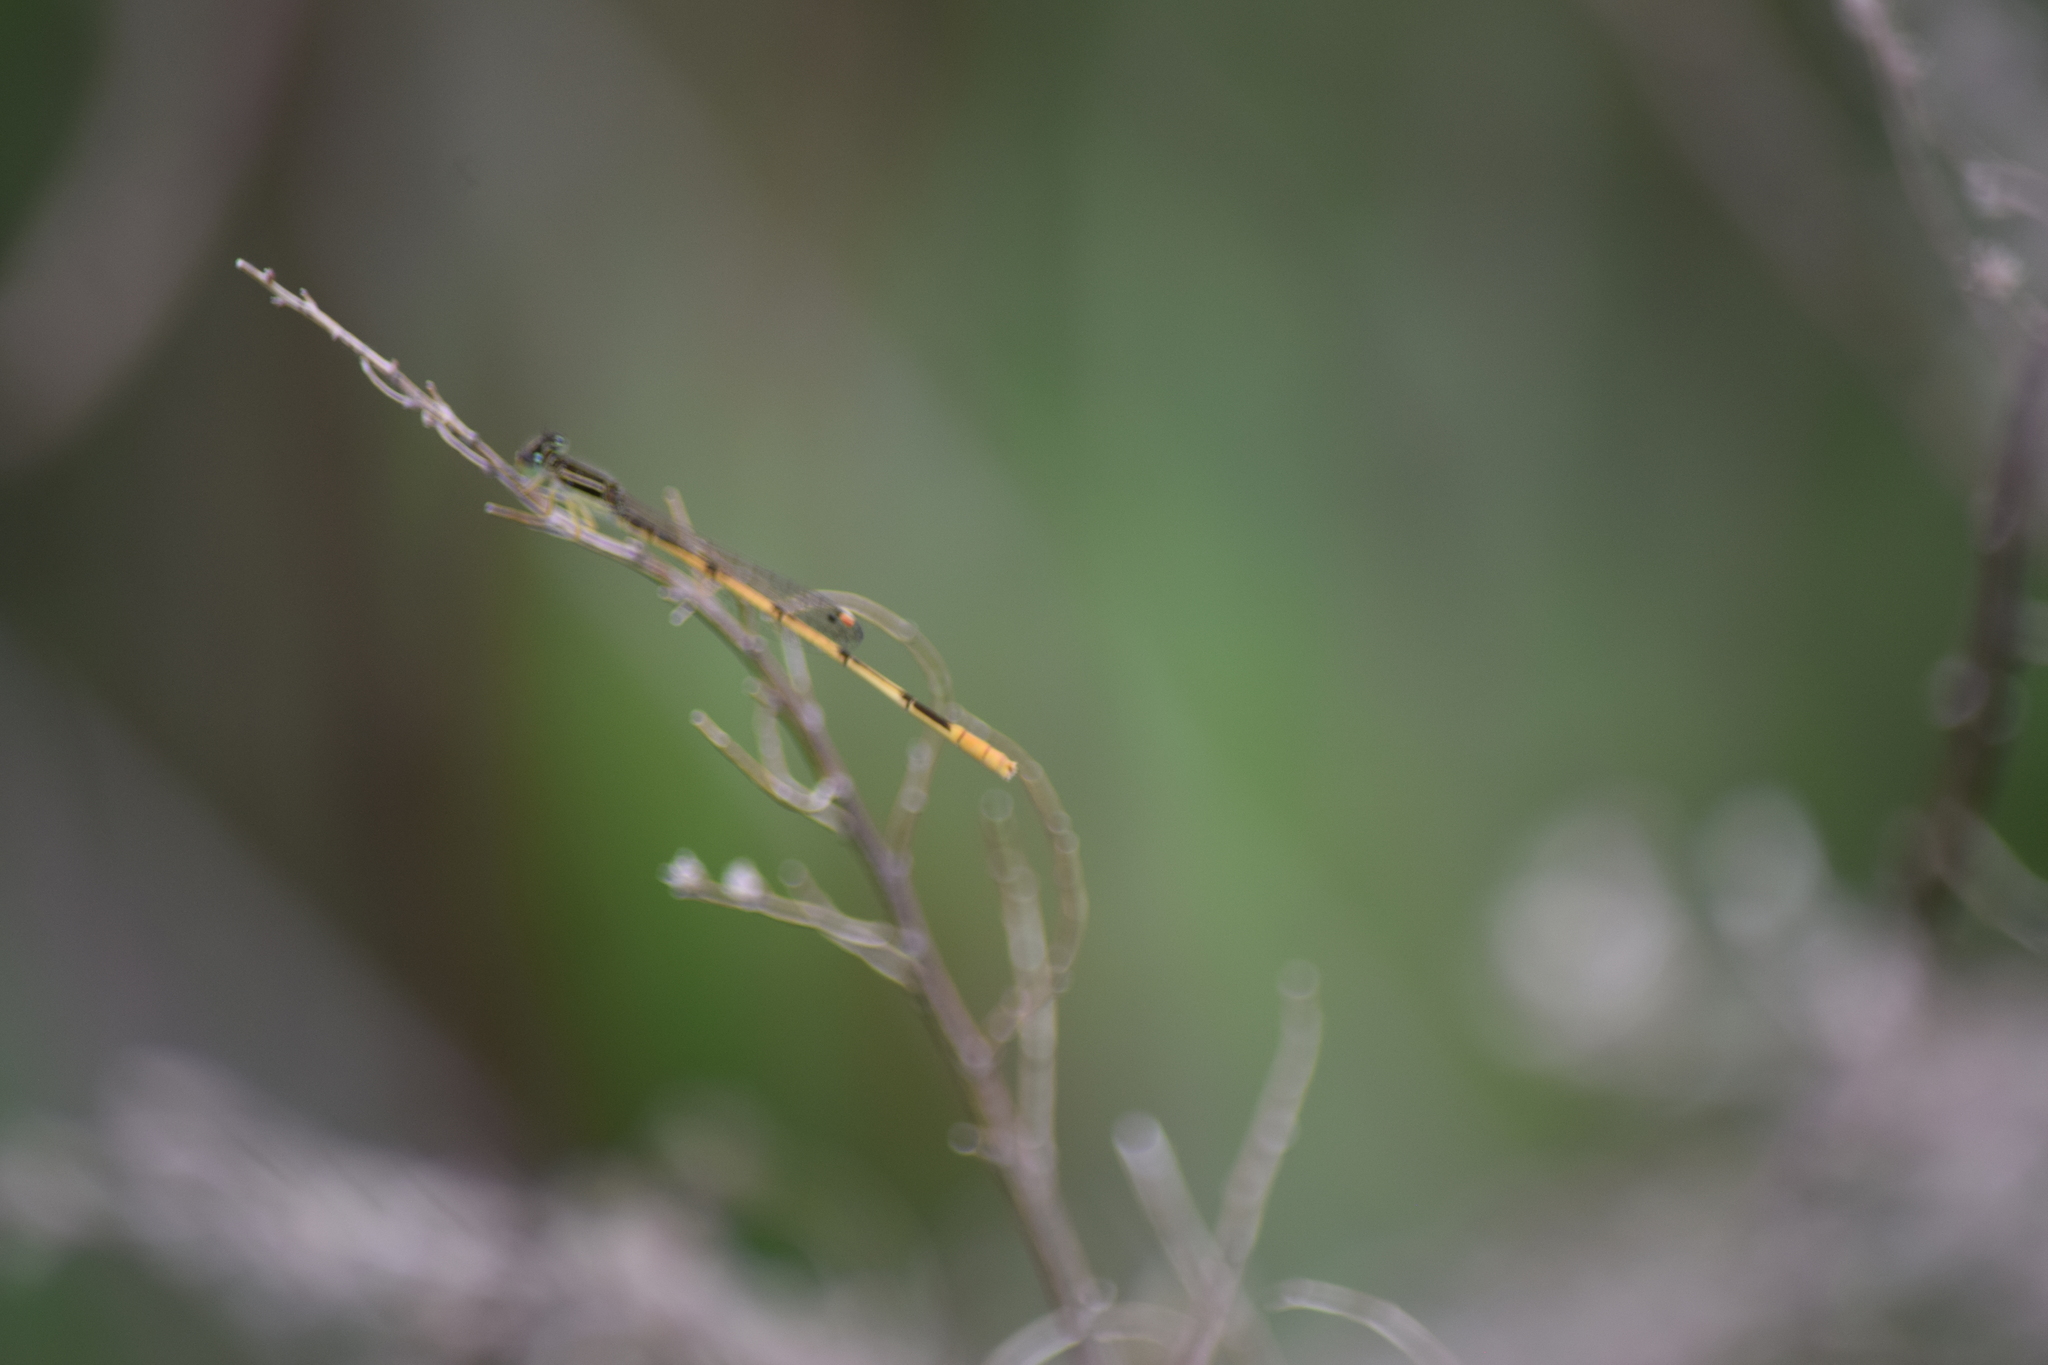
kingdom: Animalia
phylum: Arthropoda
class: Insecta
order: Odonata
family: Coenagrionidae
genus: Ischnura
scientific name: Ischnura hastata
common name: Citrine forktail
